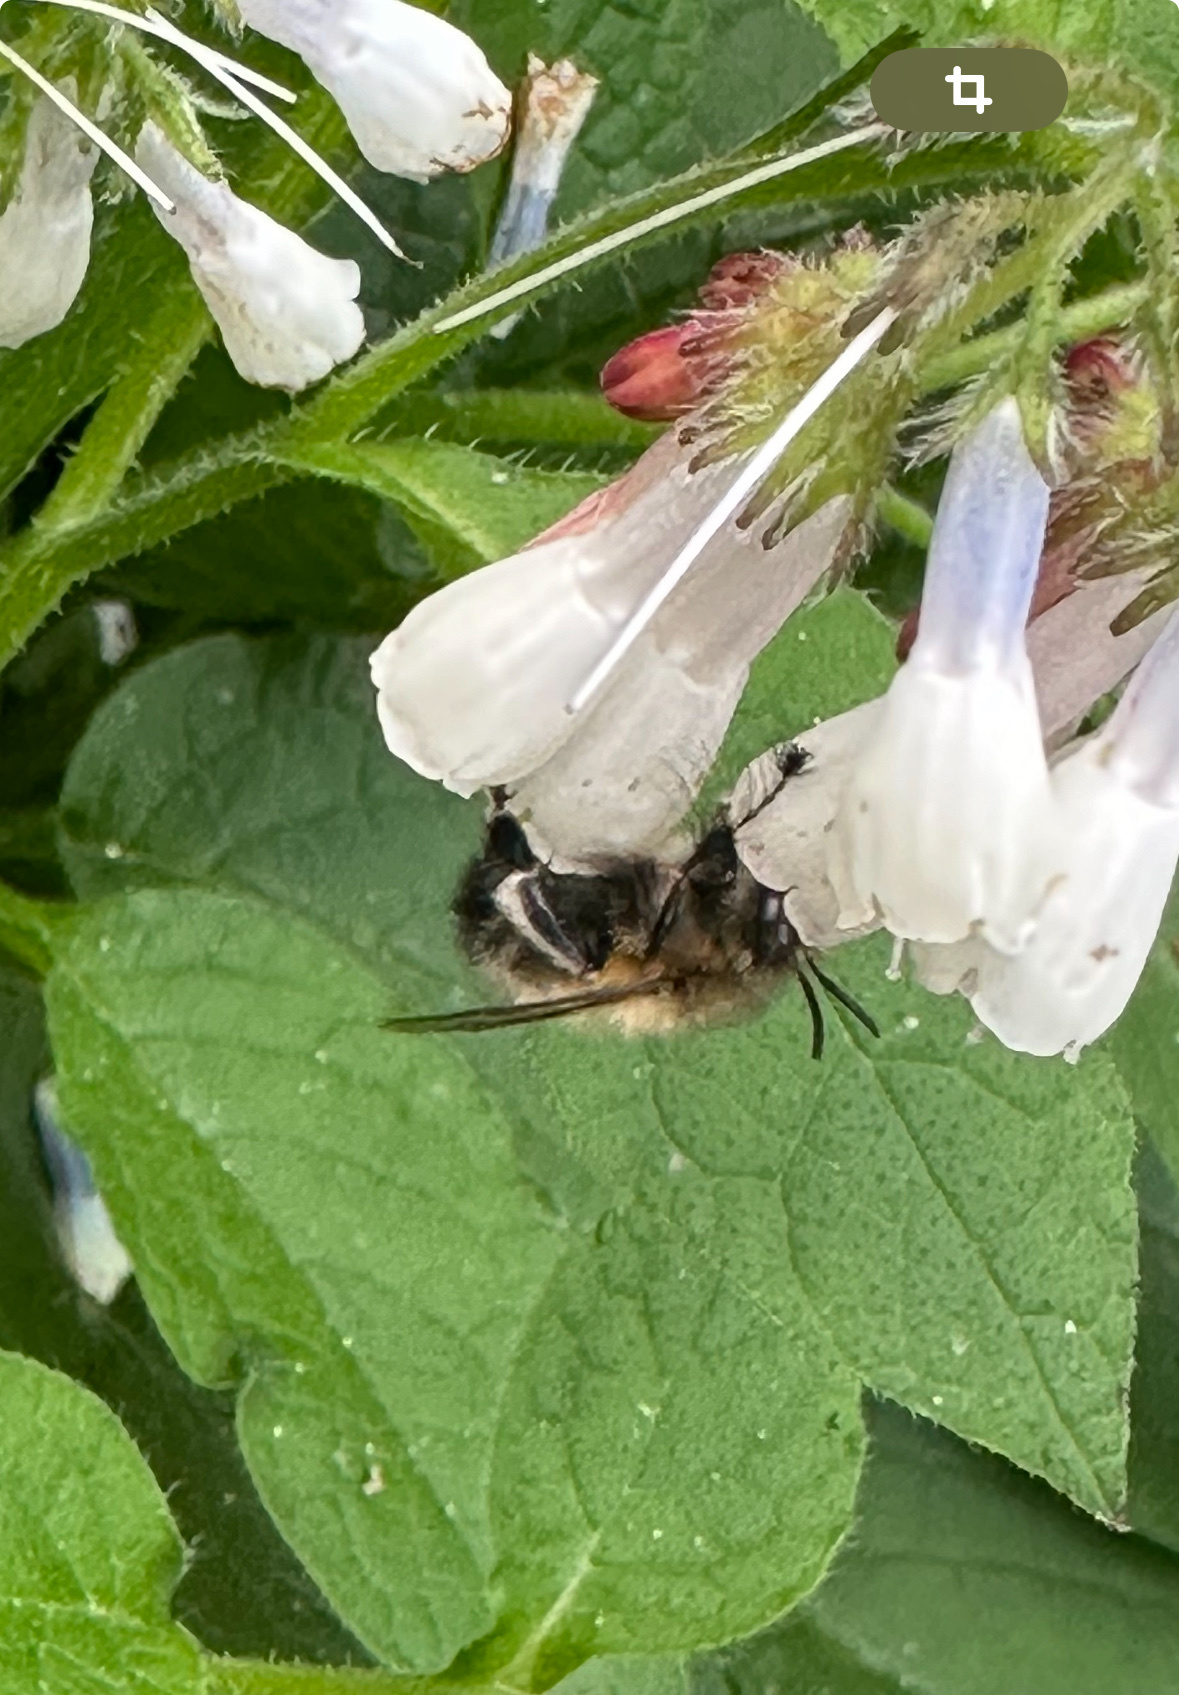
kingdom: Animalia
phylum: Arthropoda
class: Insecta
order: Hymenoptera
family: Apidae
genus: Anthophora
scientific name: Anthophora plumipes
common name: Hairy-footed flower bee
